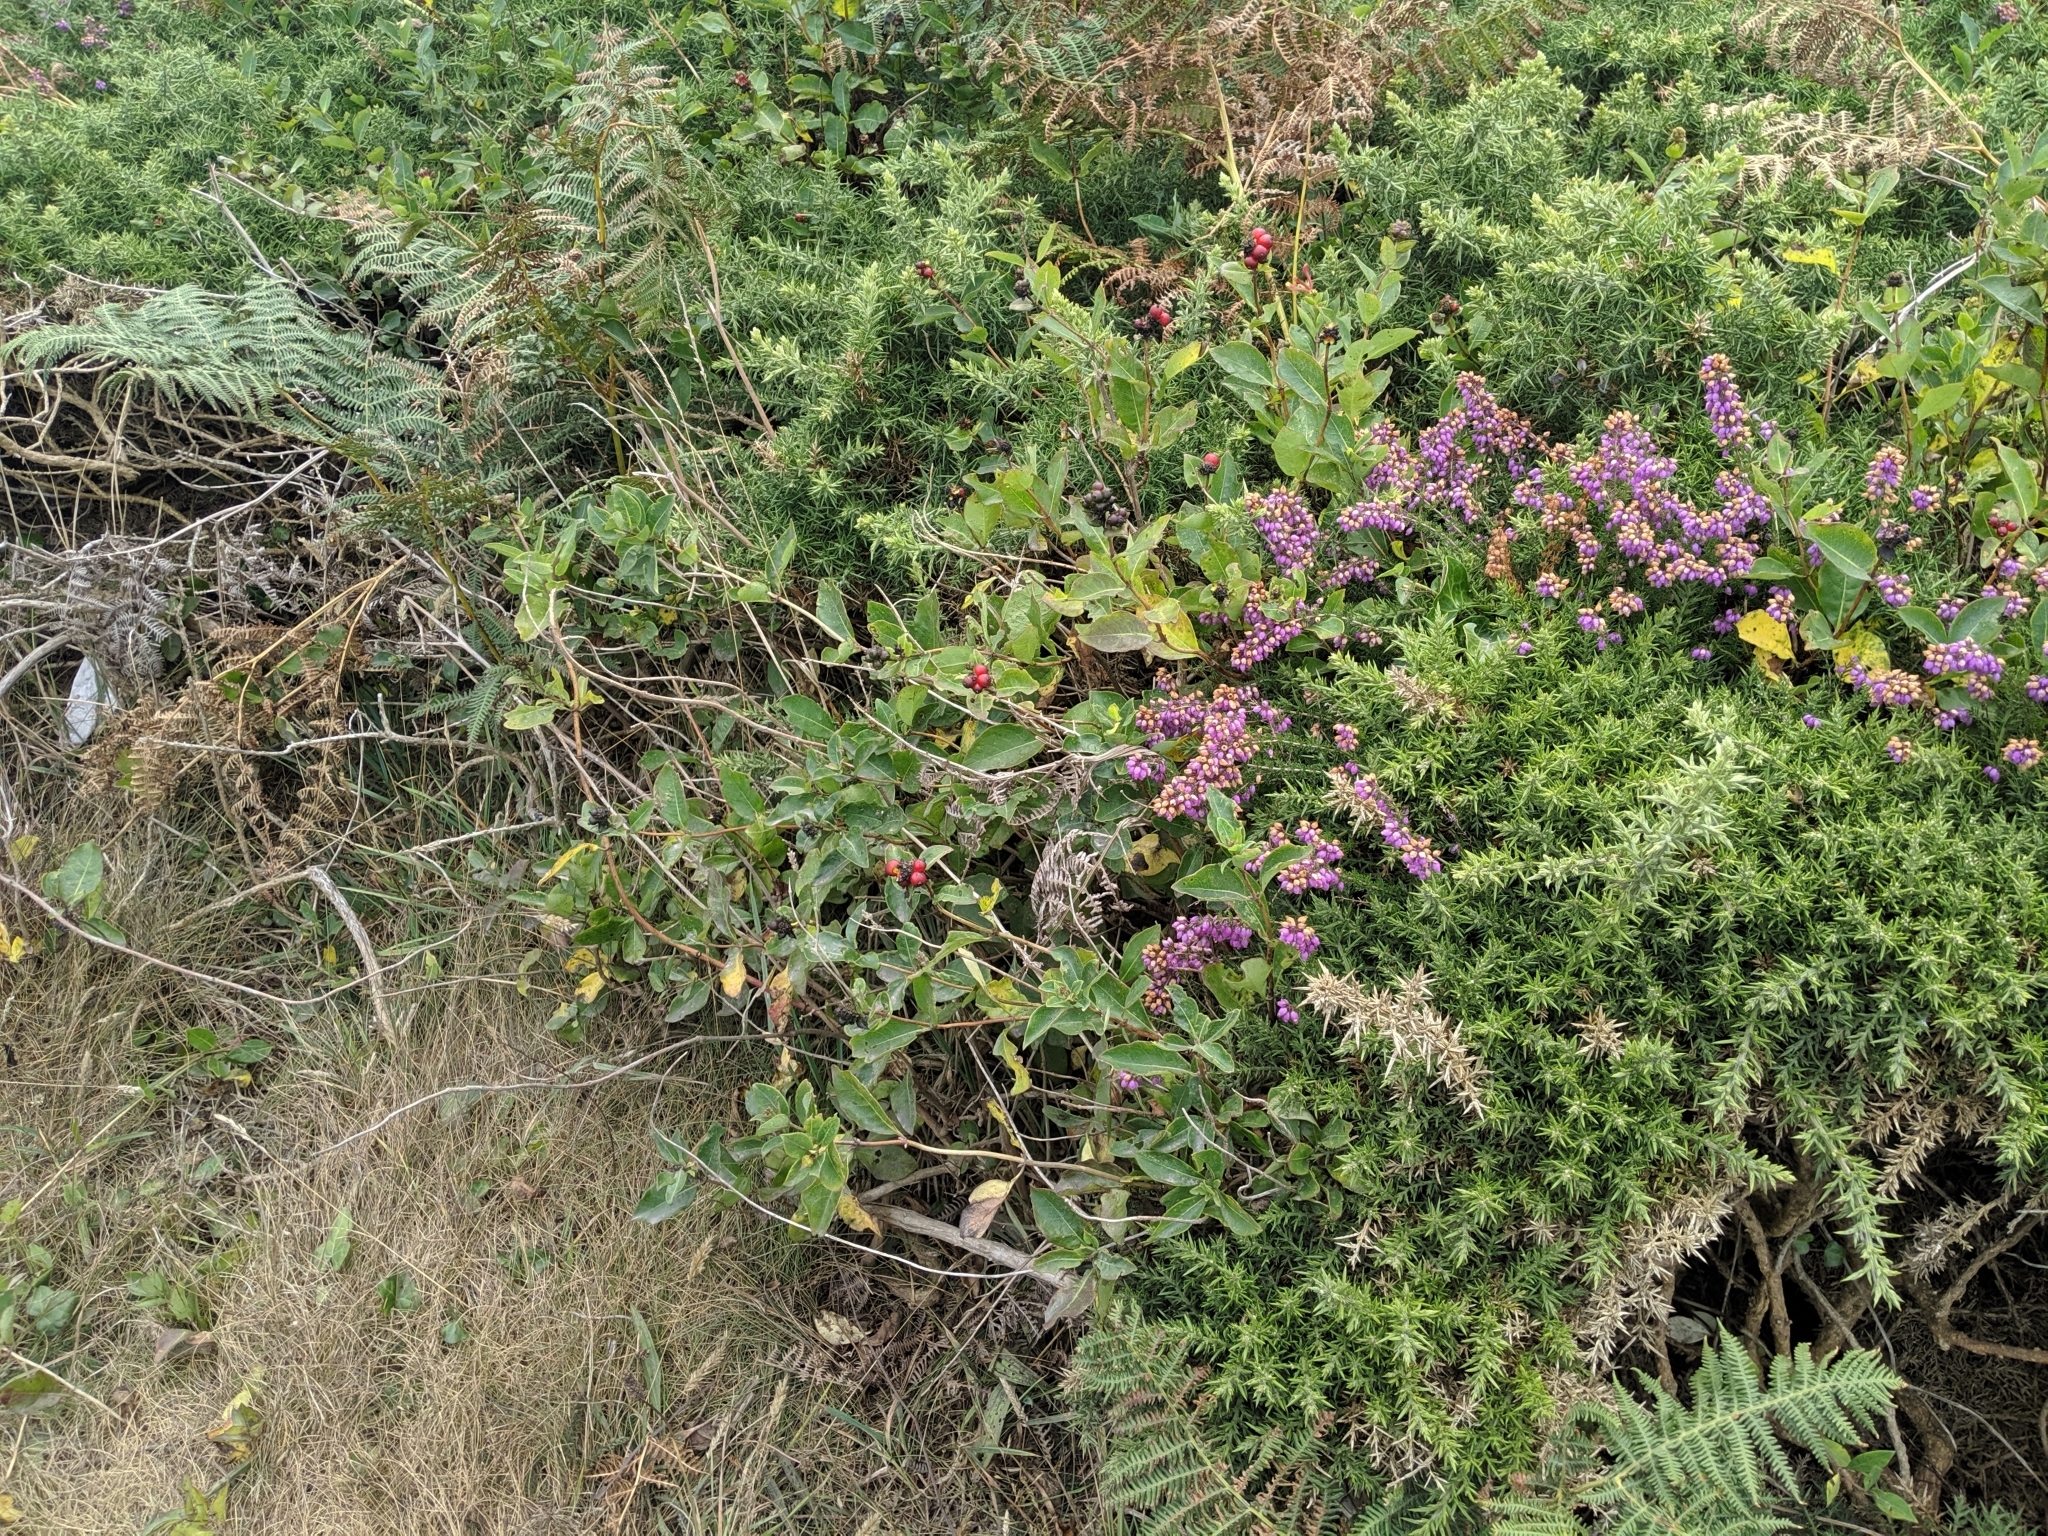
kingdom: Plantae
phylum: Tracheophyta
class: Magnoliopsida
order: Ericales
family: Ericaceae
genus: Erica
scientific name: Erica cinerea
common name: Bell heather
